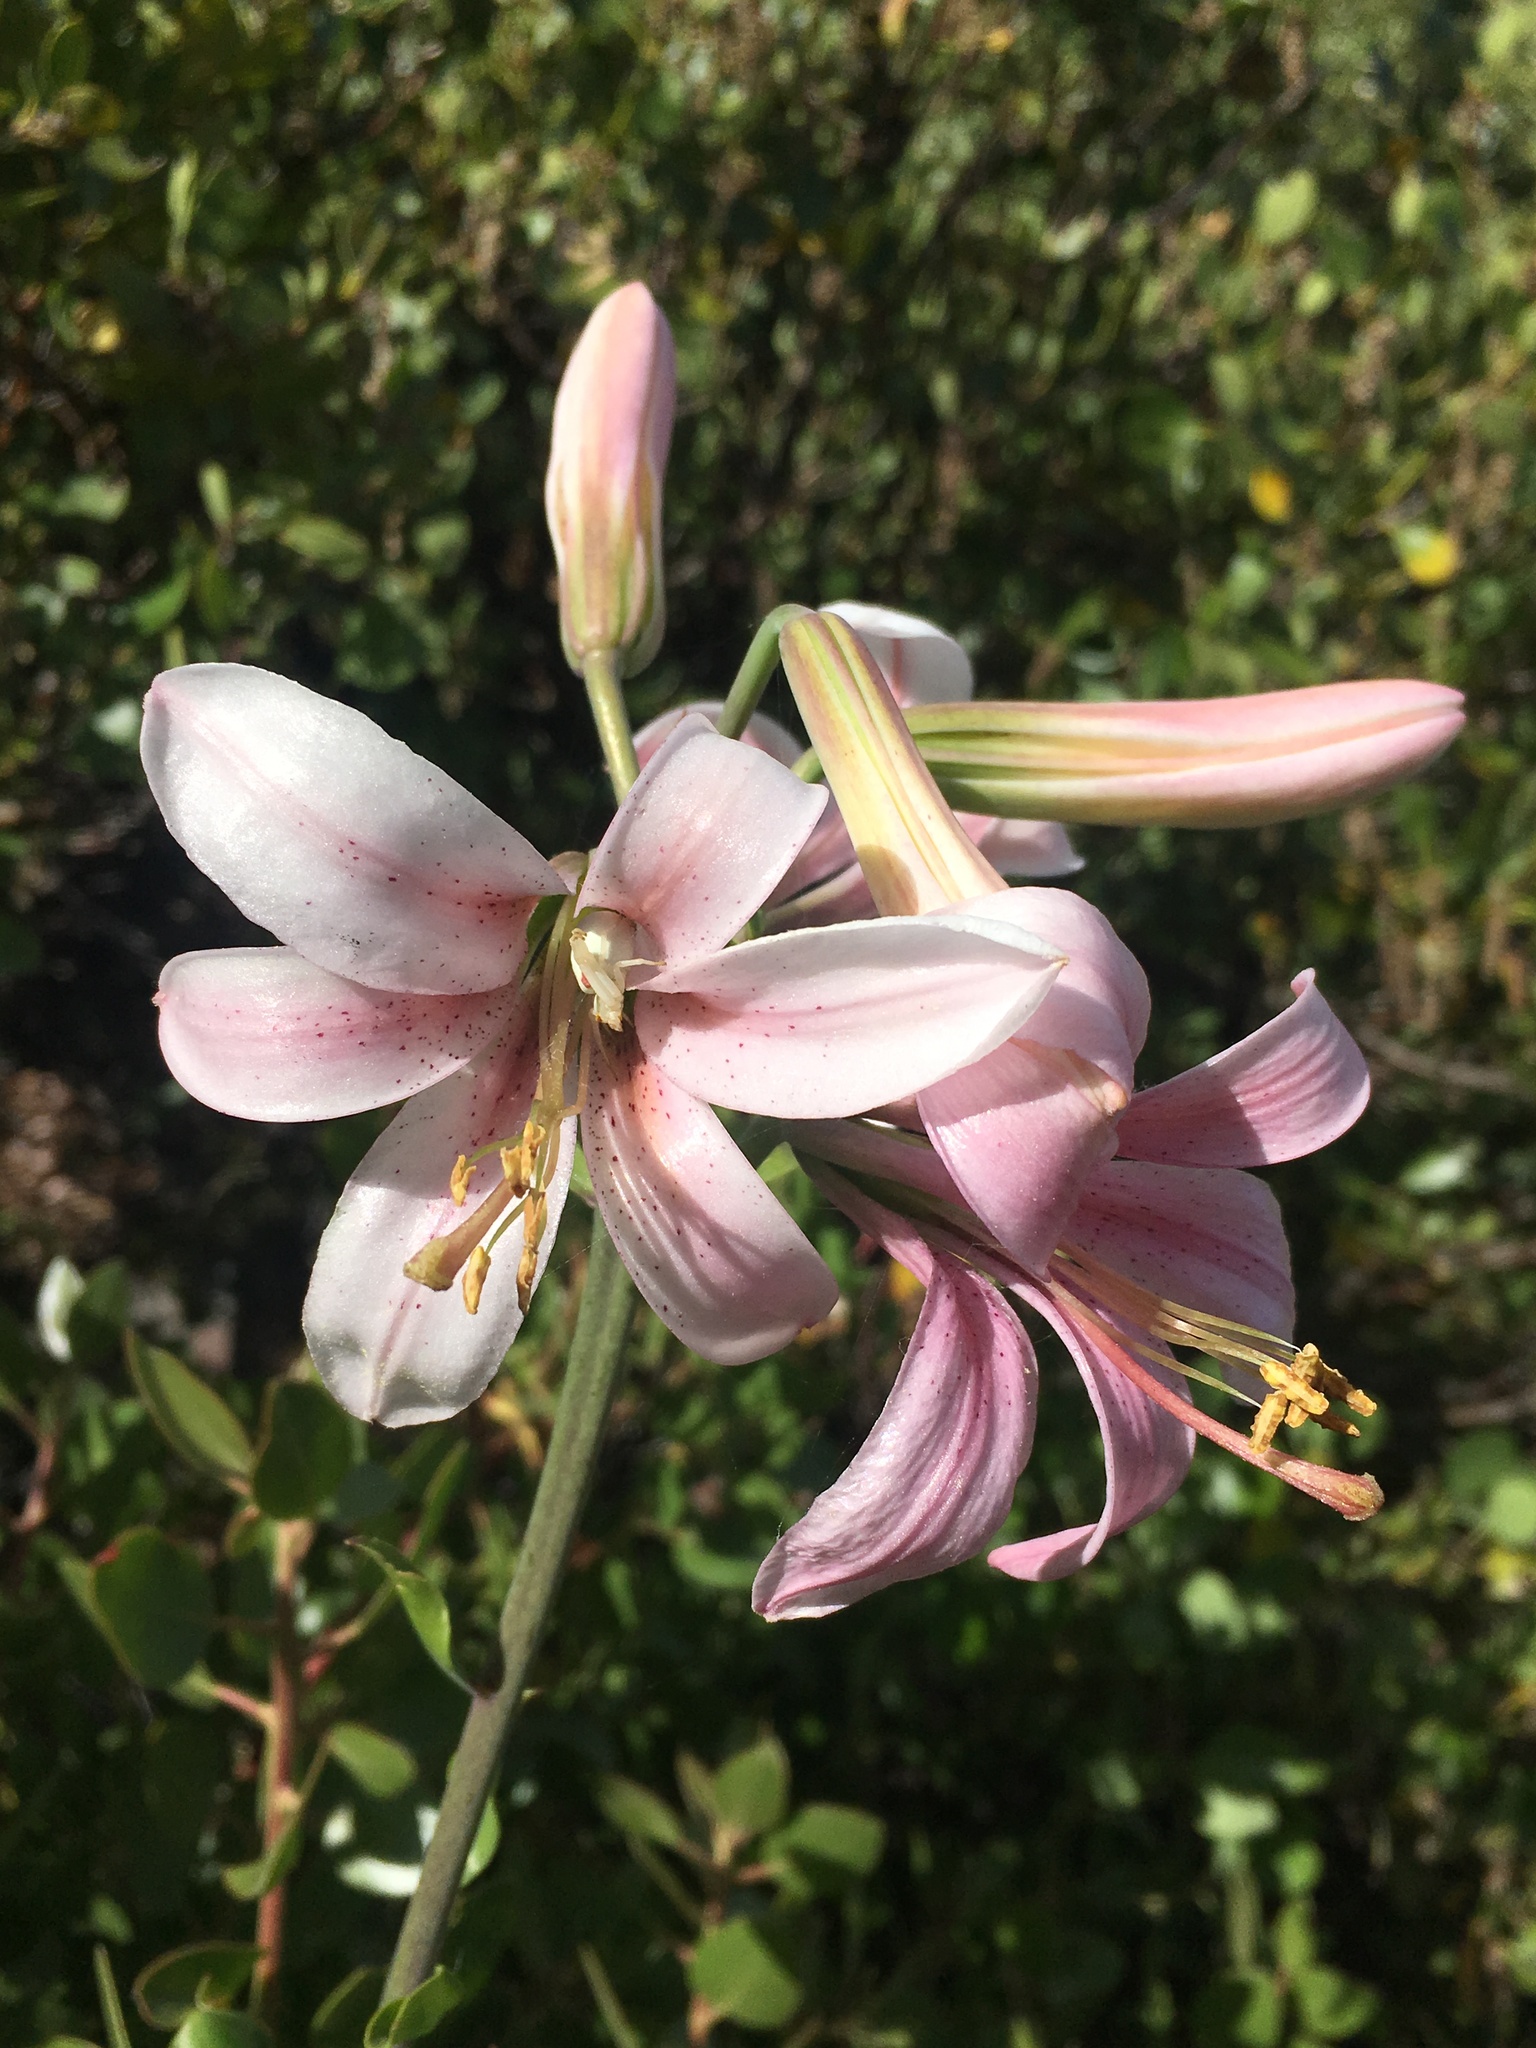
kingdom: Plantae
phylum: Tracheophyta
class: Liliopsida
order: Liliales
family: Liliaceae
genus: Lilium
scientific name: Lilium washingtonianum
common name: Washington lily
